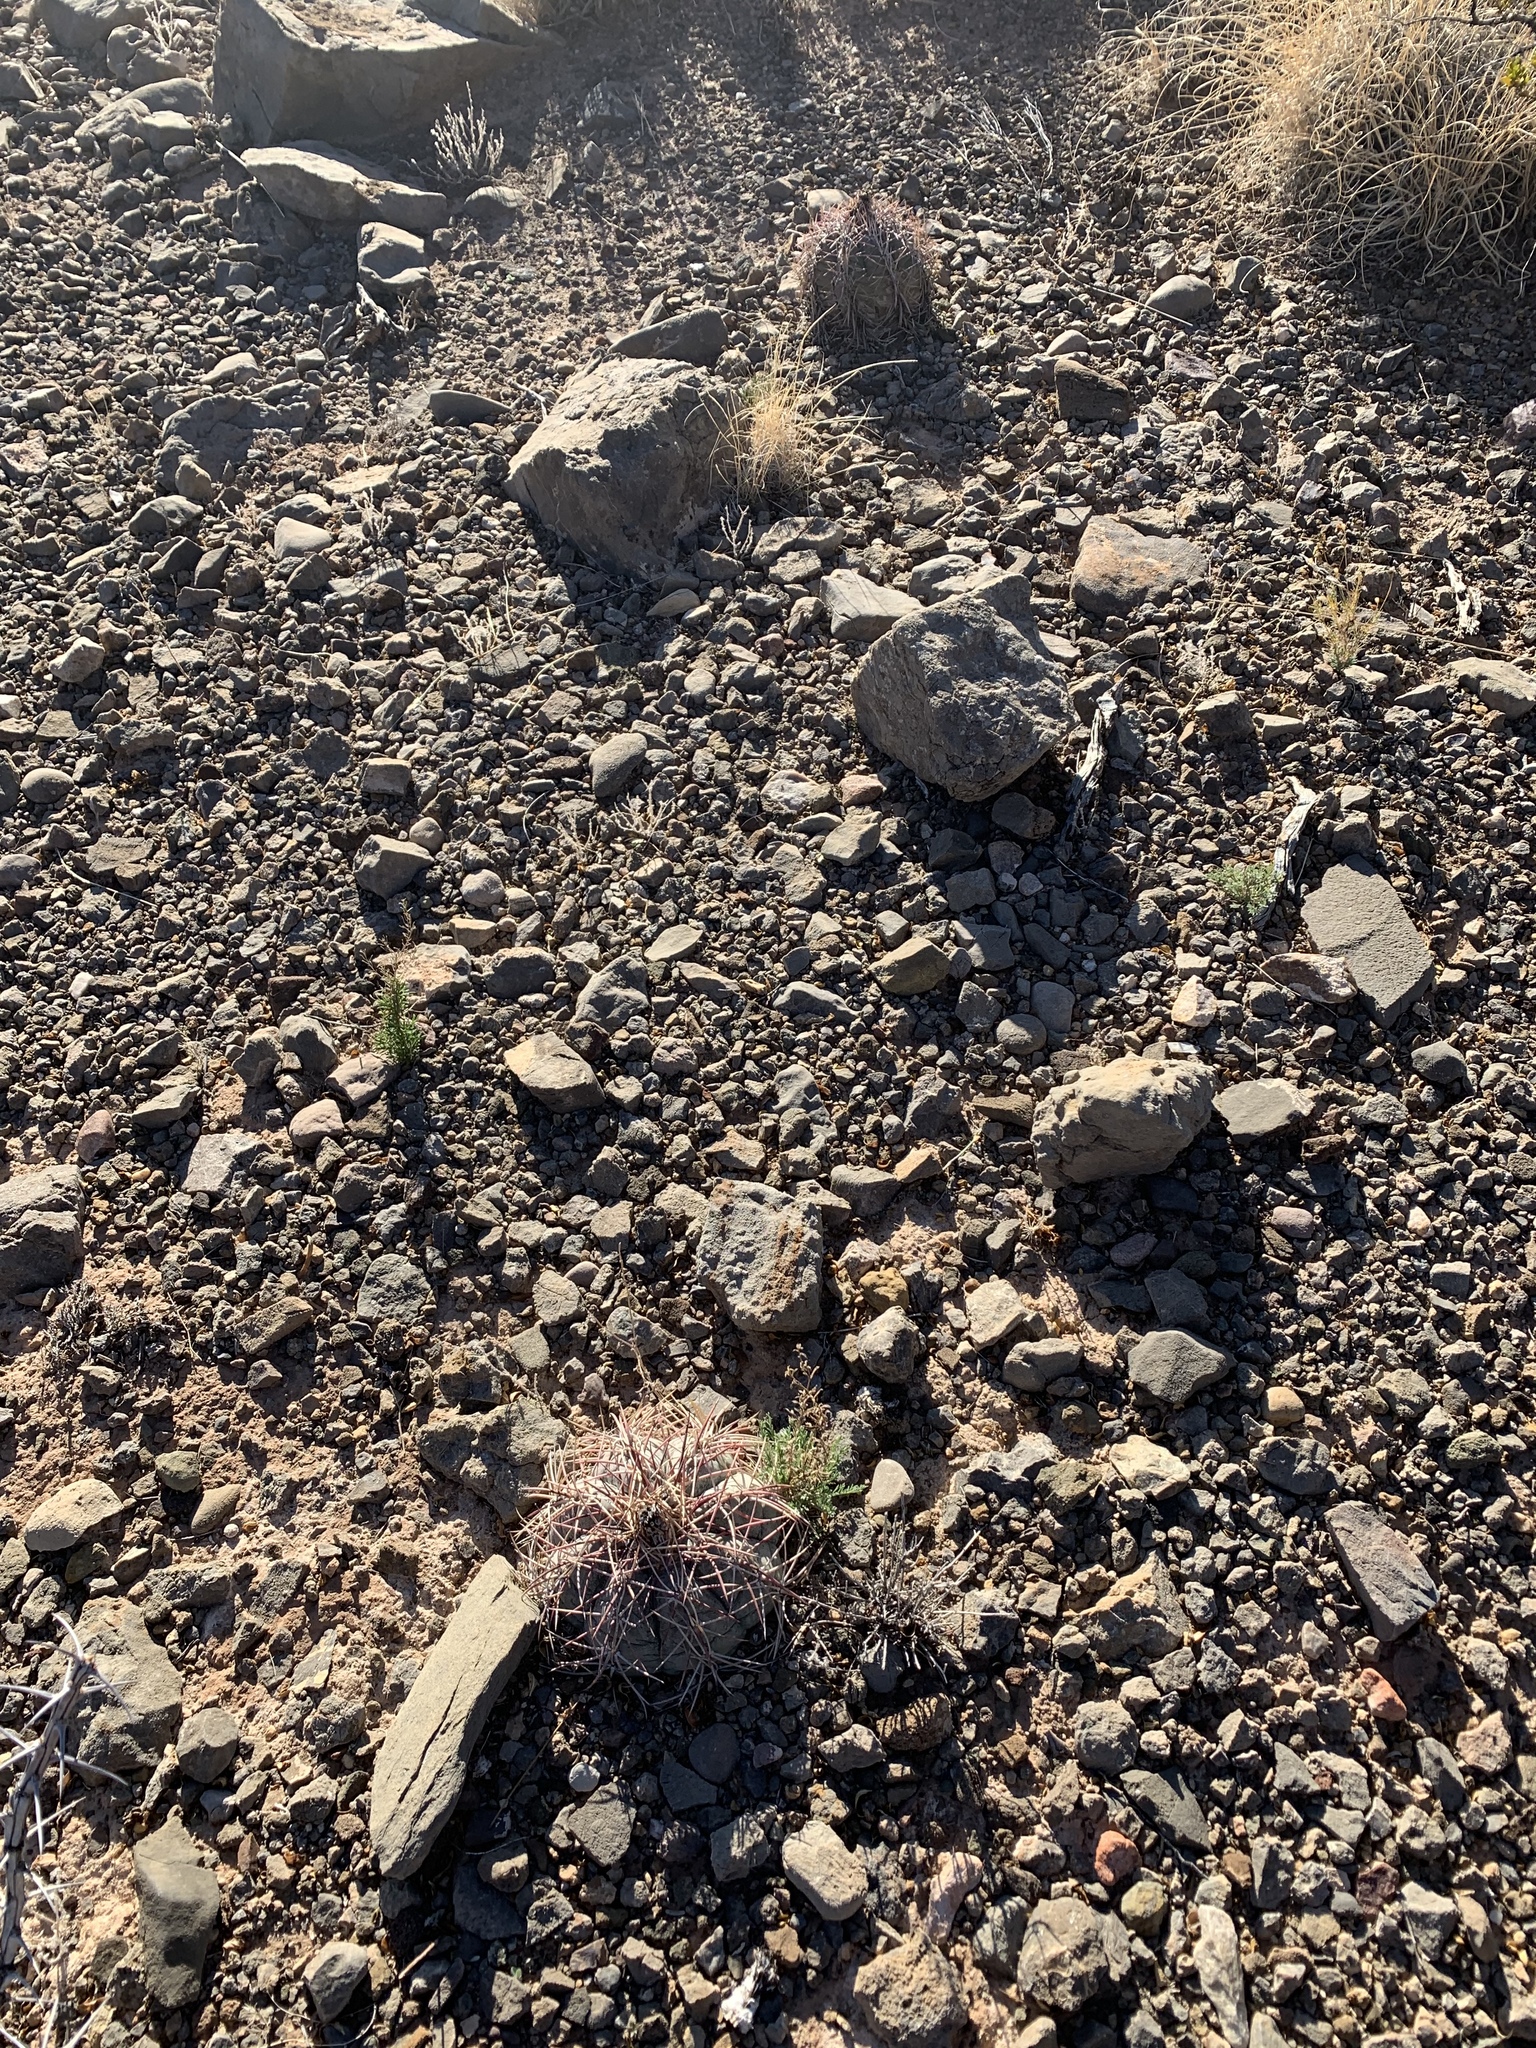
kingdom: Plantae
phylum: Tracheophyta
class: Magnoliopsida
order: Caryophyllales
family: Cactaceae
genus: Echinocactus
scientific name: Echinocactus horizonthalonius
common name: Devilshead
